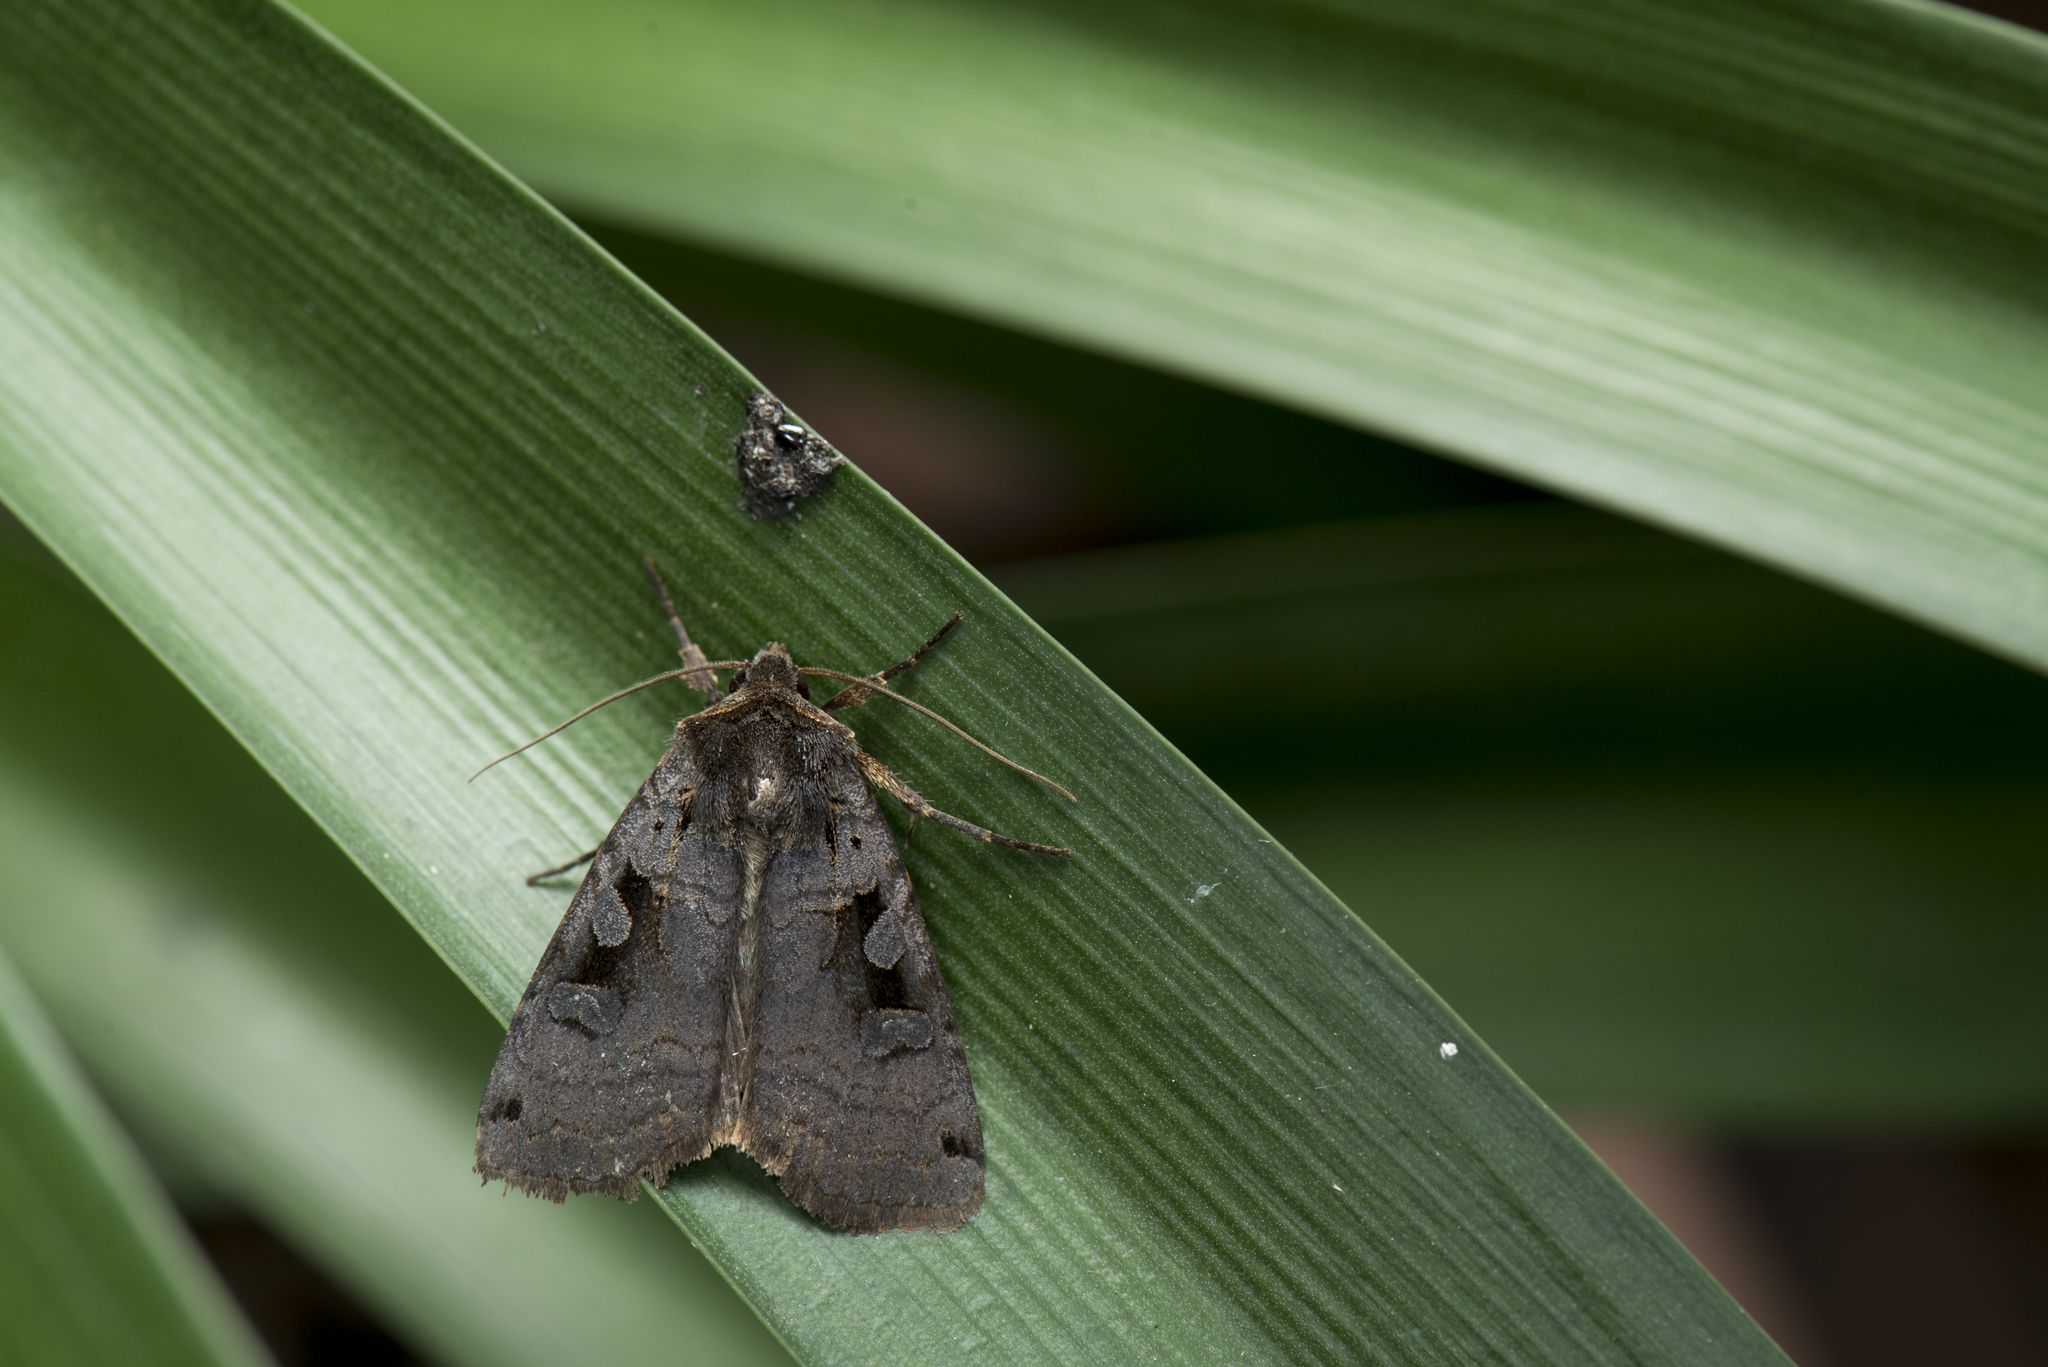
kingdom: Animalia
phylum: Arthropoda
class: Insecta
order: Lepidoptera
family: Noctuidae
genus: Xestia
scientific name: Xestia csoevarii
